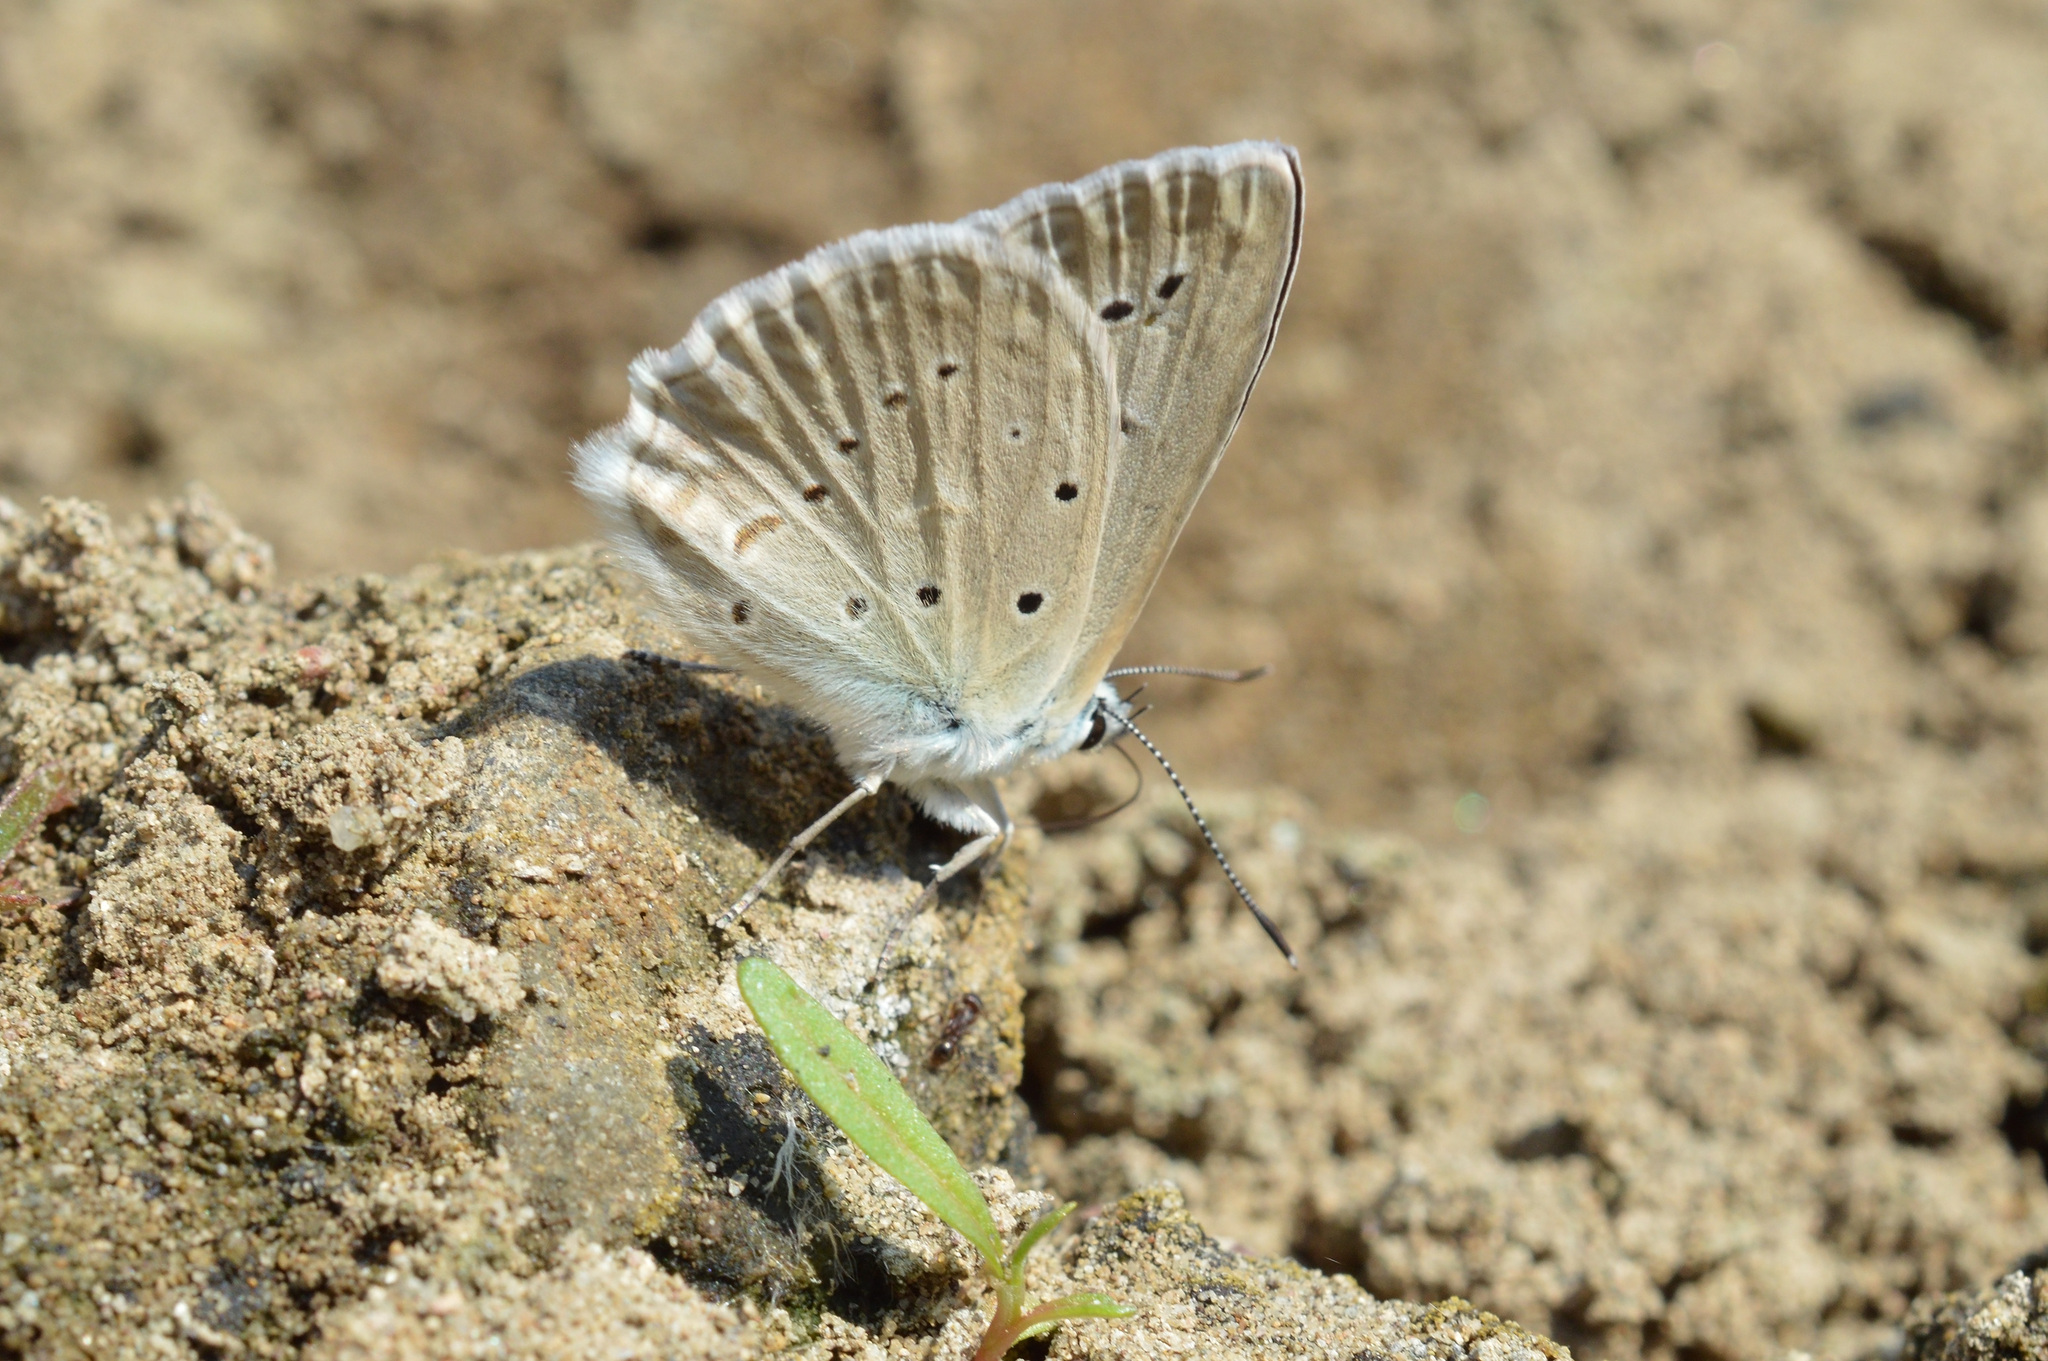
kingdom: Animalia
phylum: Arthropoda
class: Insecta
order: Lepidoptera
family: Lycaenidae
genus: Polyommatus
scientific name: Polyommatus daphnis
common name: Meleager's blue
